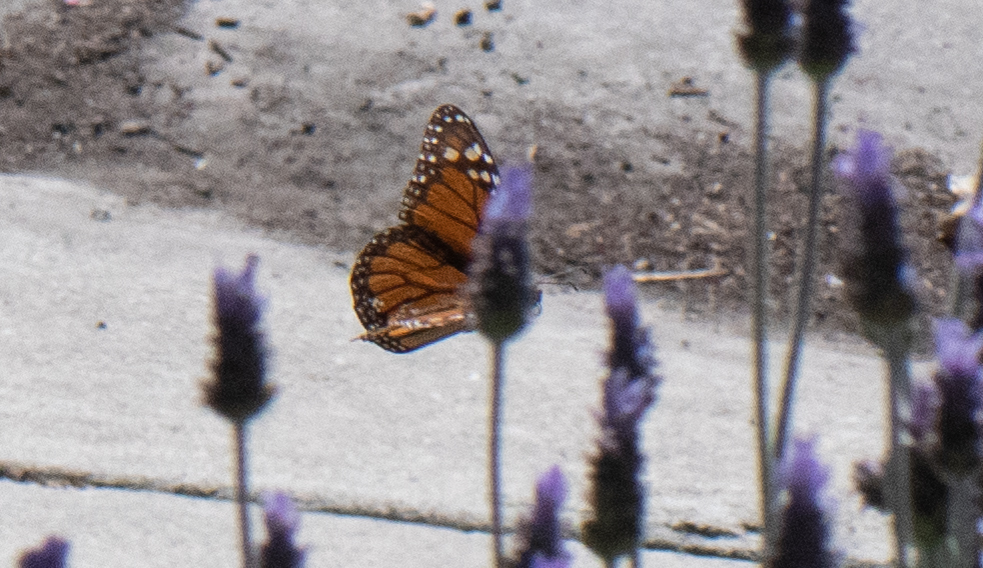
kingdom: Animalia
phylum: Arthropoda
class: Insecta
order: Lepidoptera
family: Nymphalidae
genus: Danaus
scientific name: Danaus plexippus
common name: Monarch
